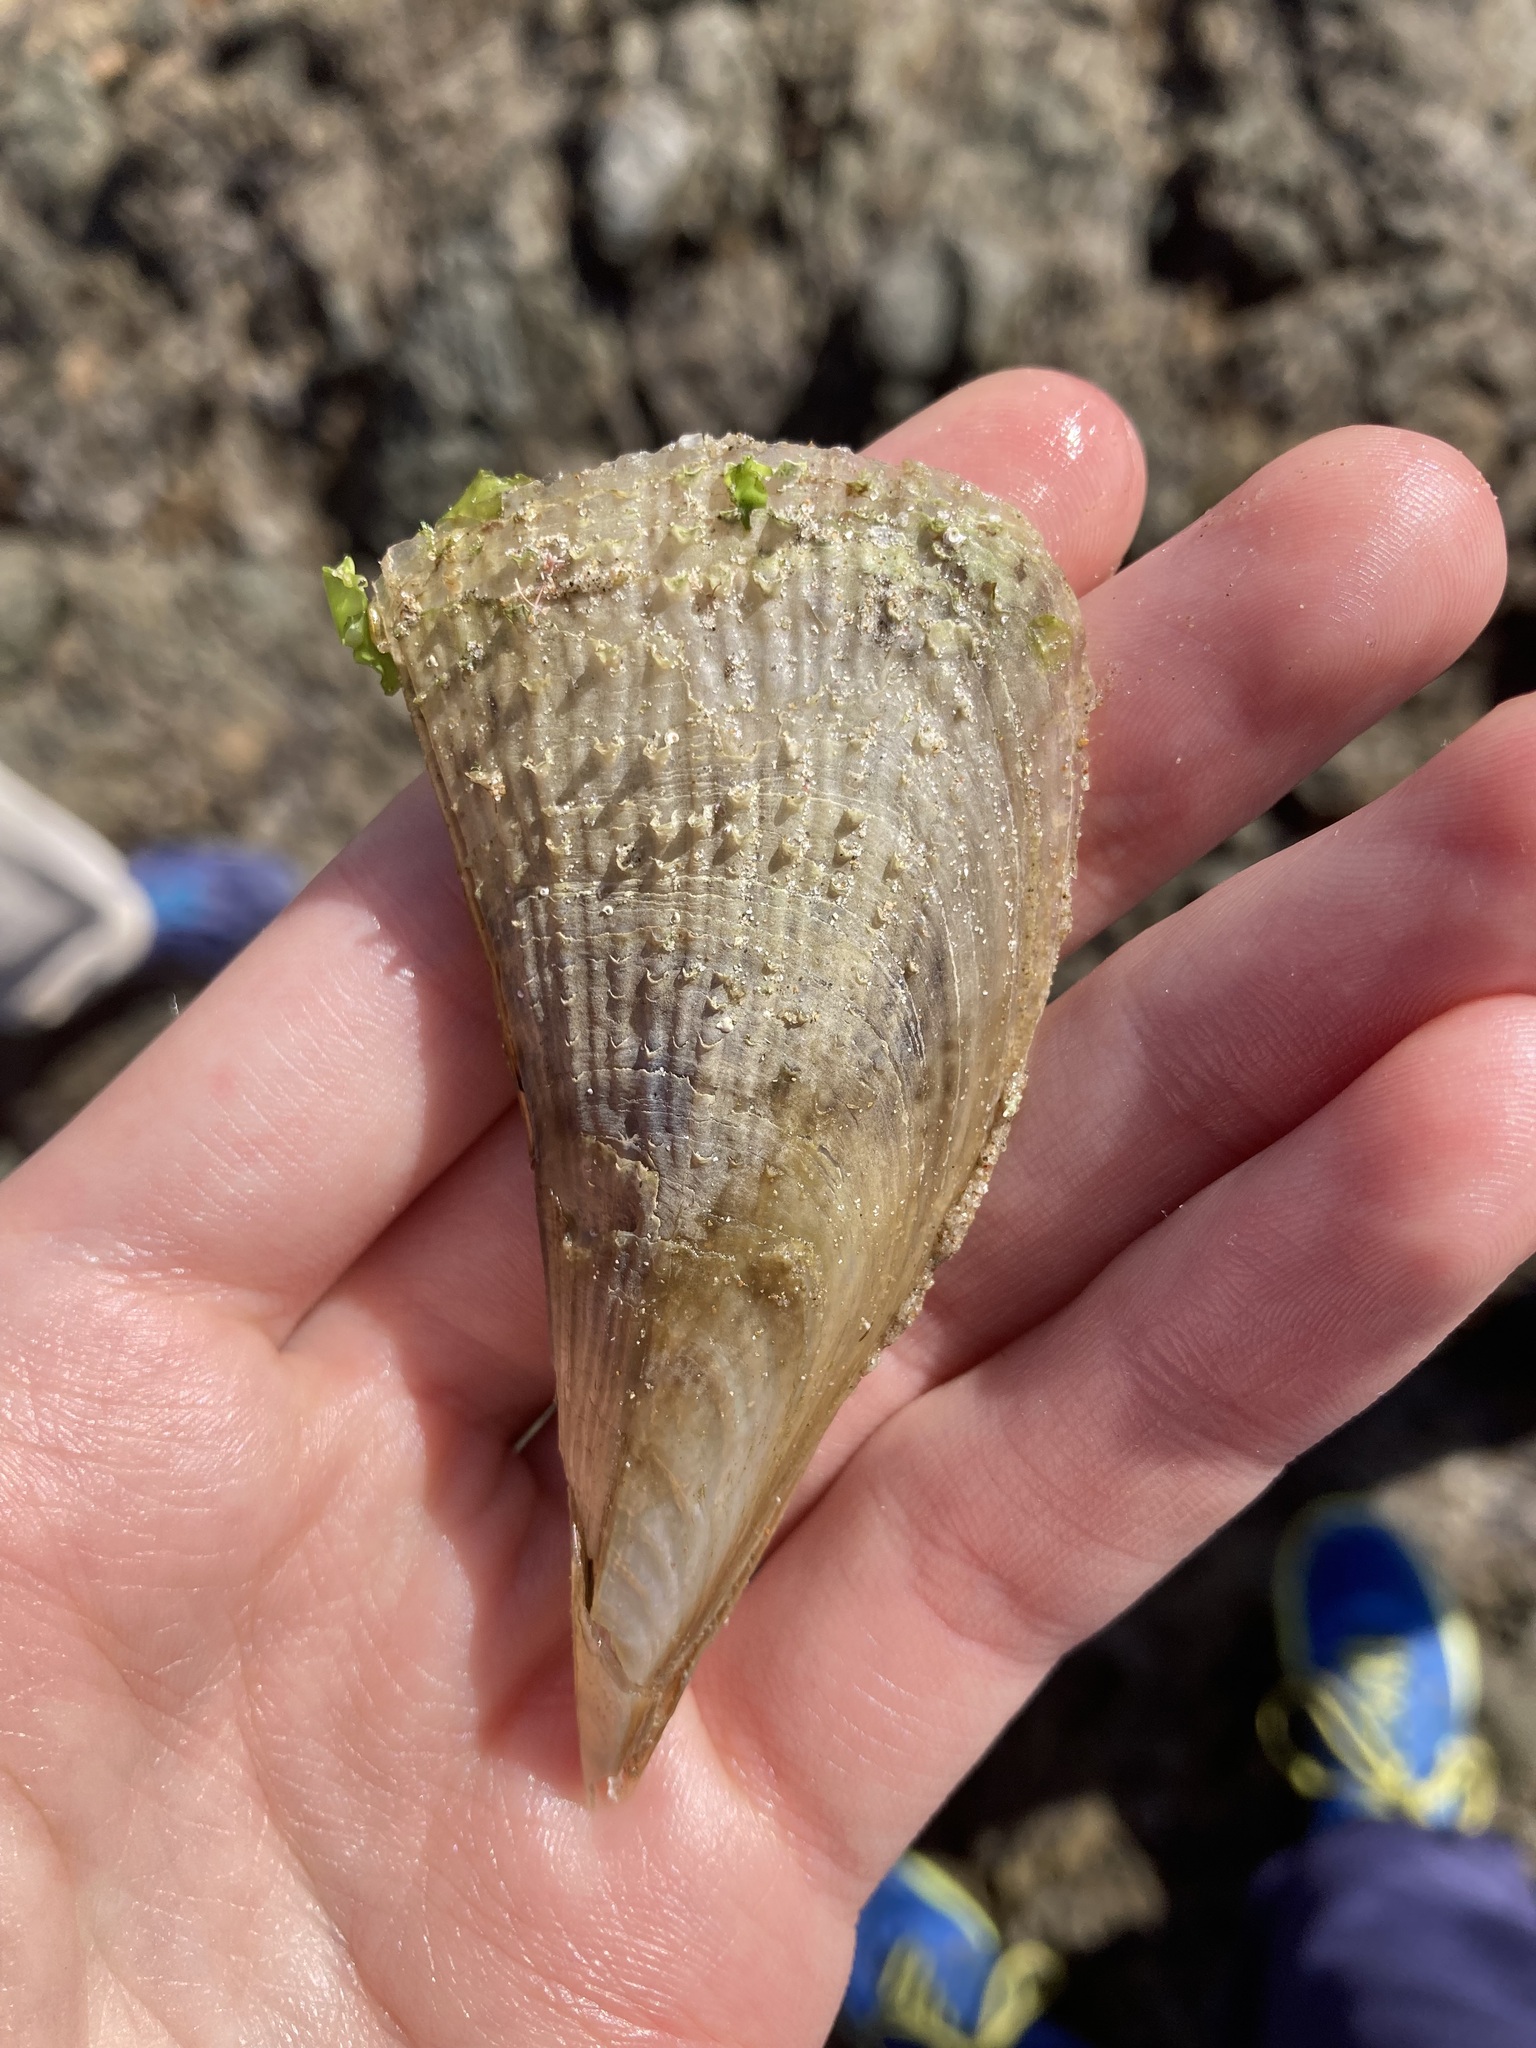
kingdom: Animalia
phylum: Mollusca
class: Bivalvia
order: Ostreida
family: Pinnidae
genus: Pinna
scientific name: Pinna bicolor
